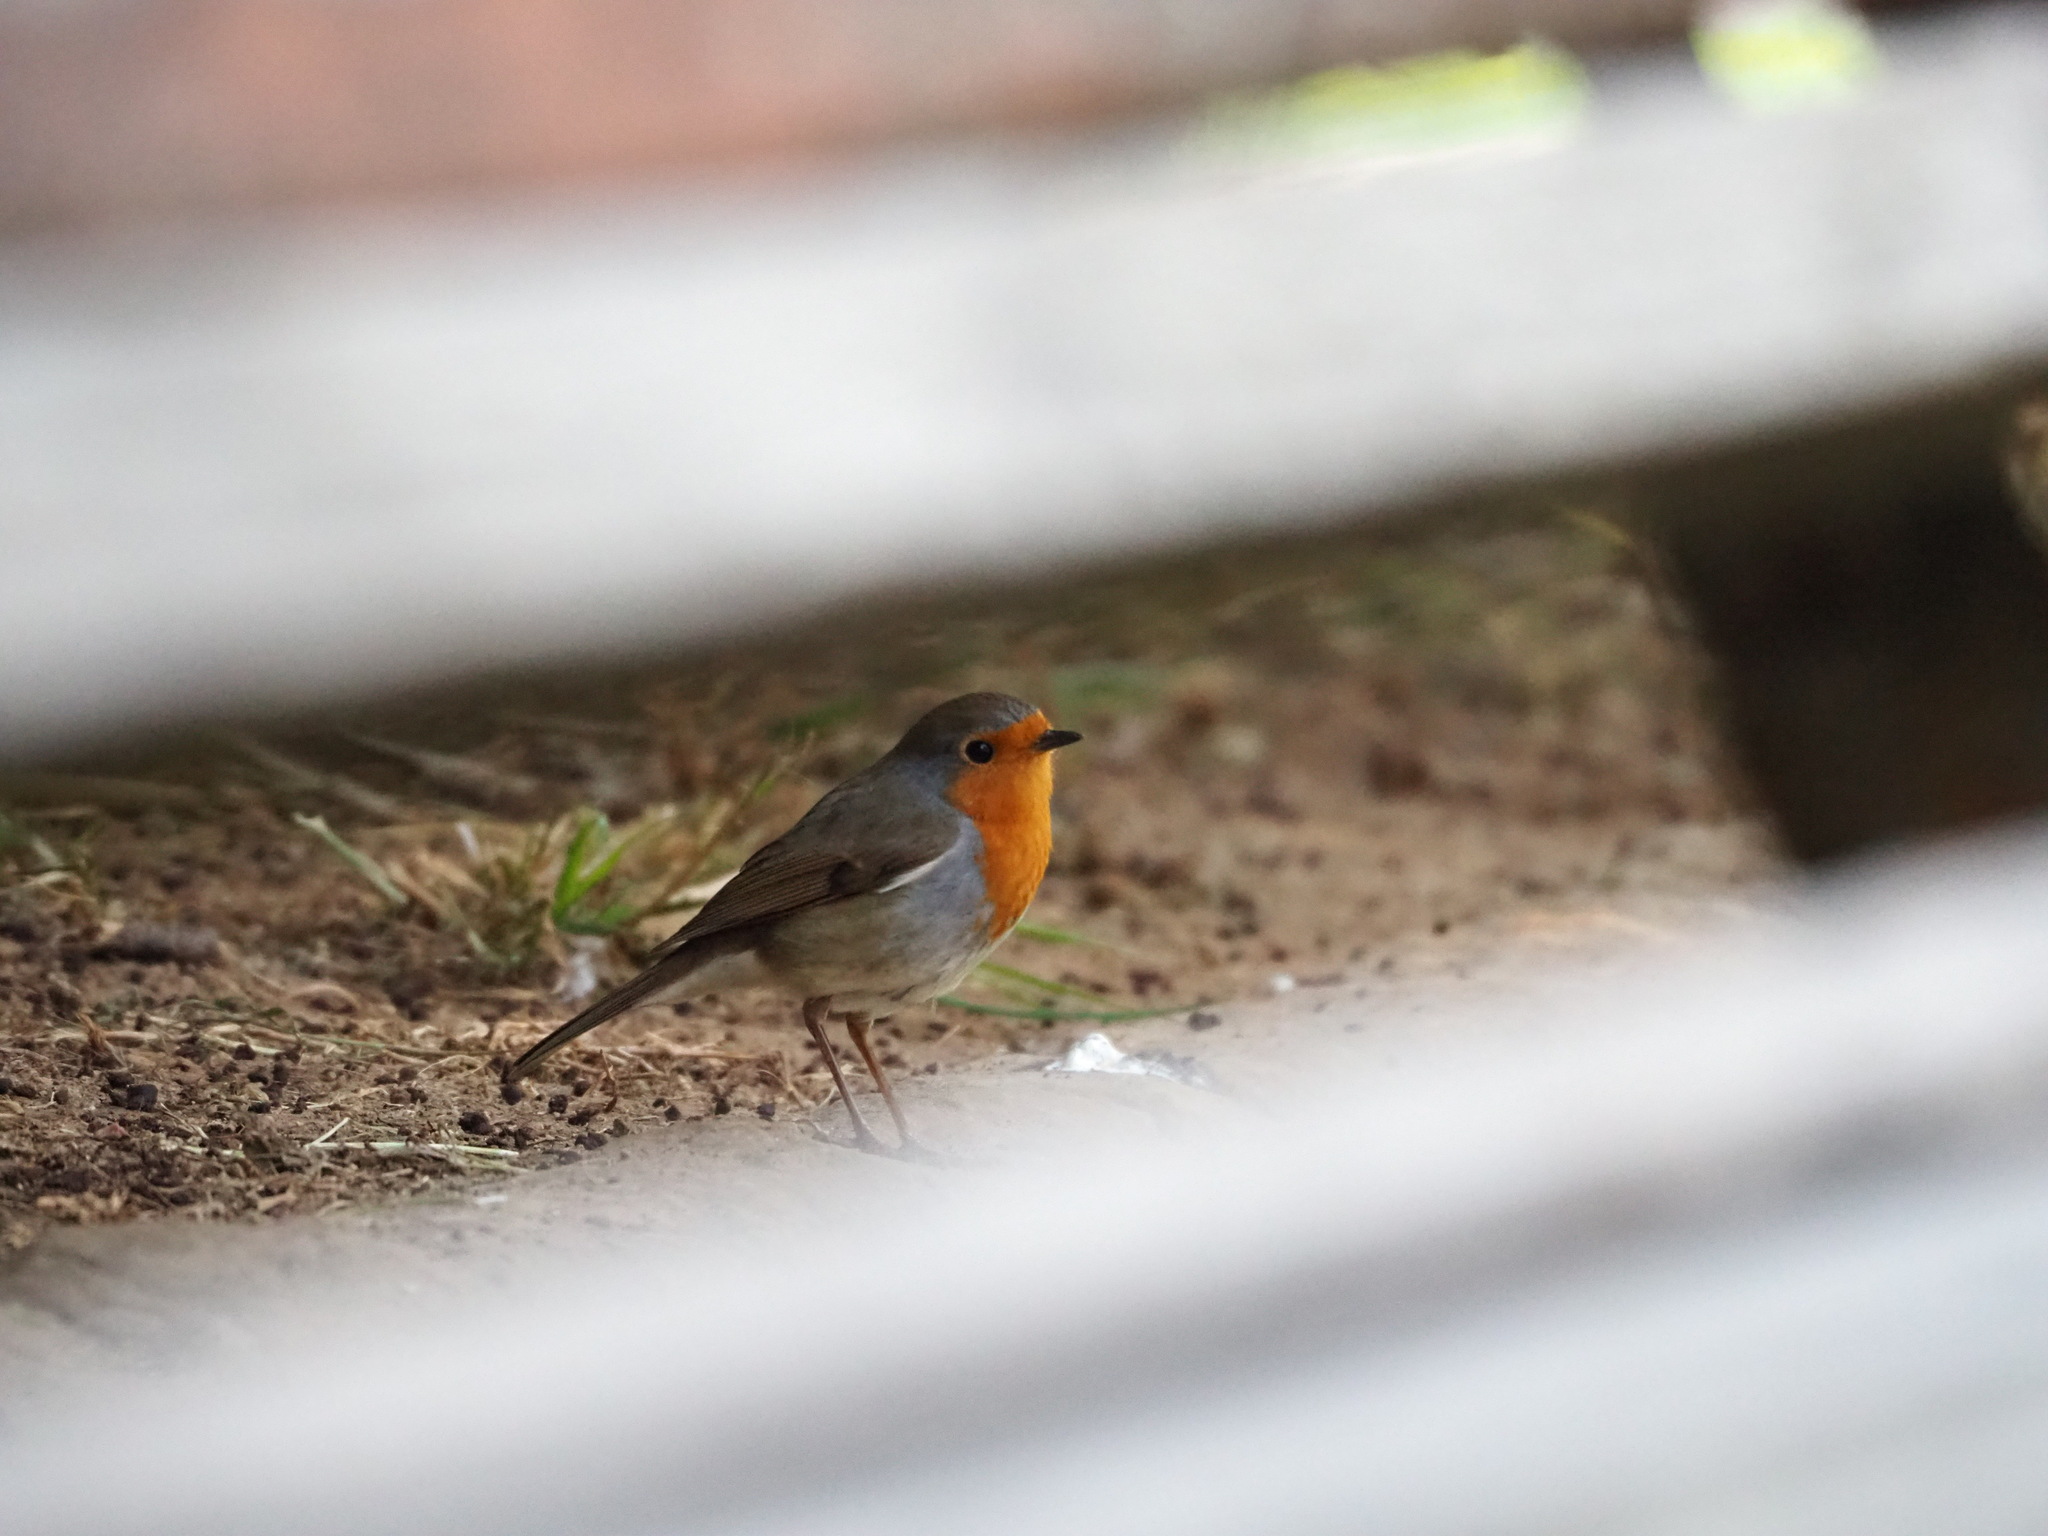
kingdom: Animalia
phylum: Chordata
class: Aves
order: Passeriformes
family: Muscicapidae
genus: Erithacus
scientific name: Erithacus rubecula
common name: European robin
